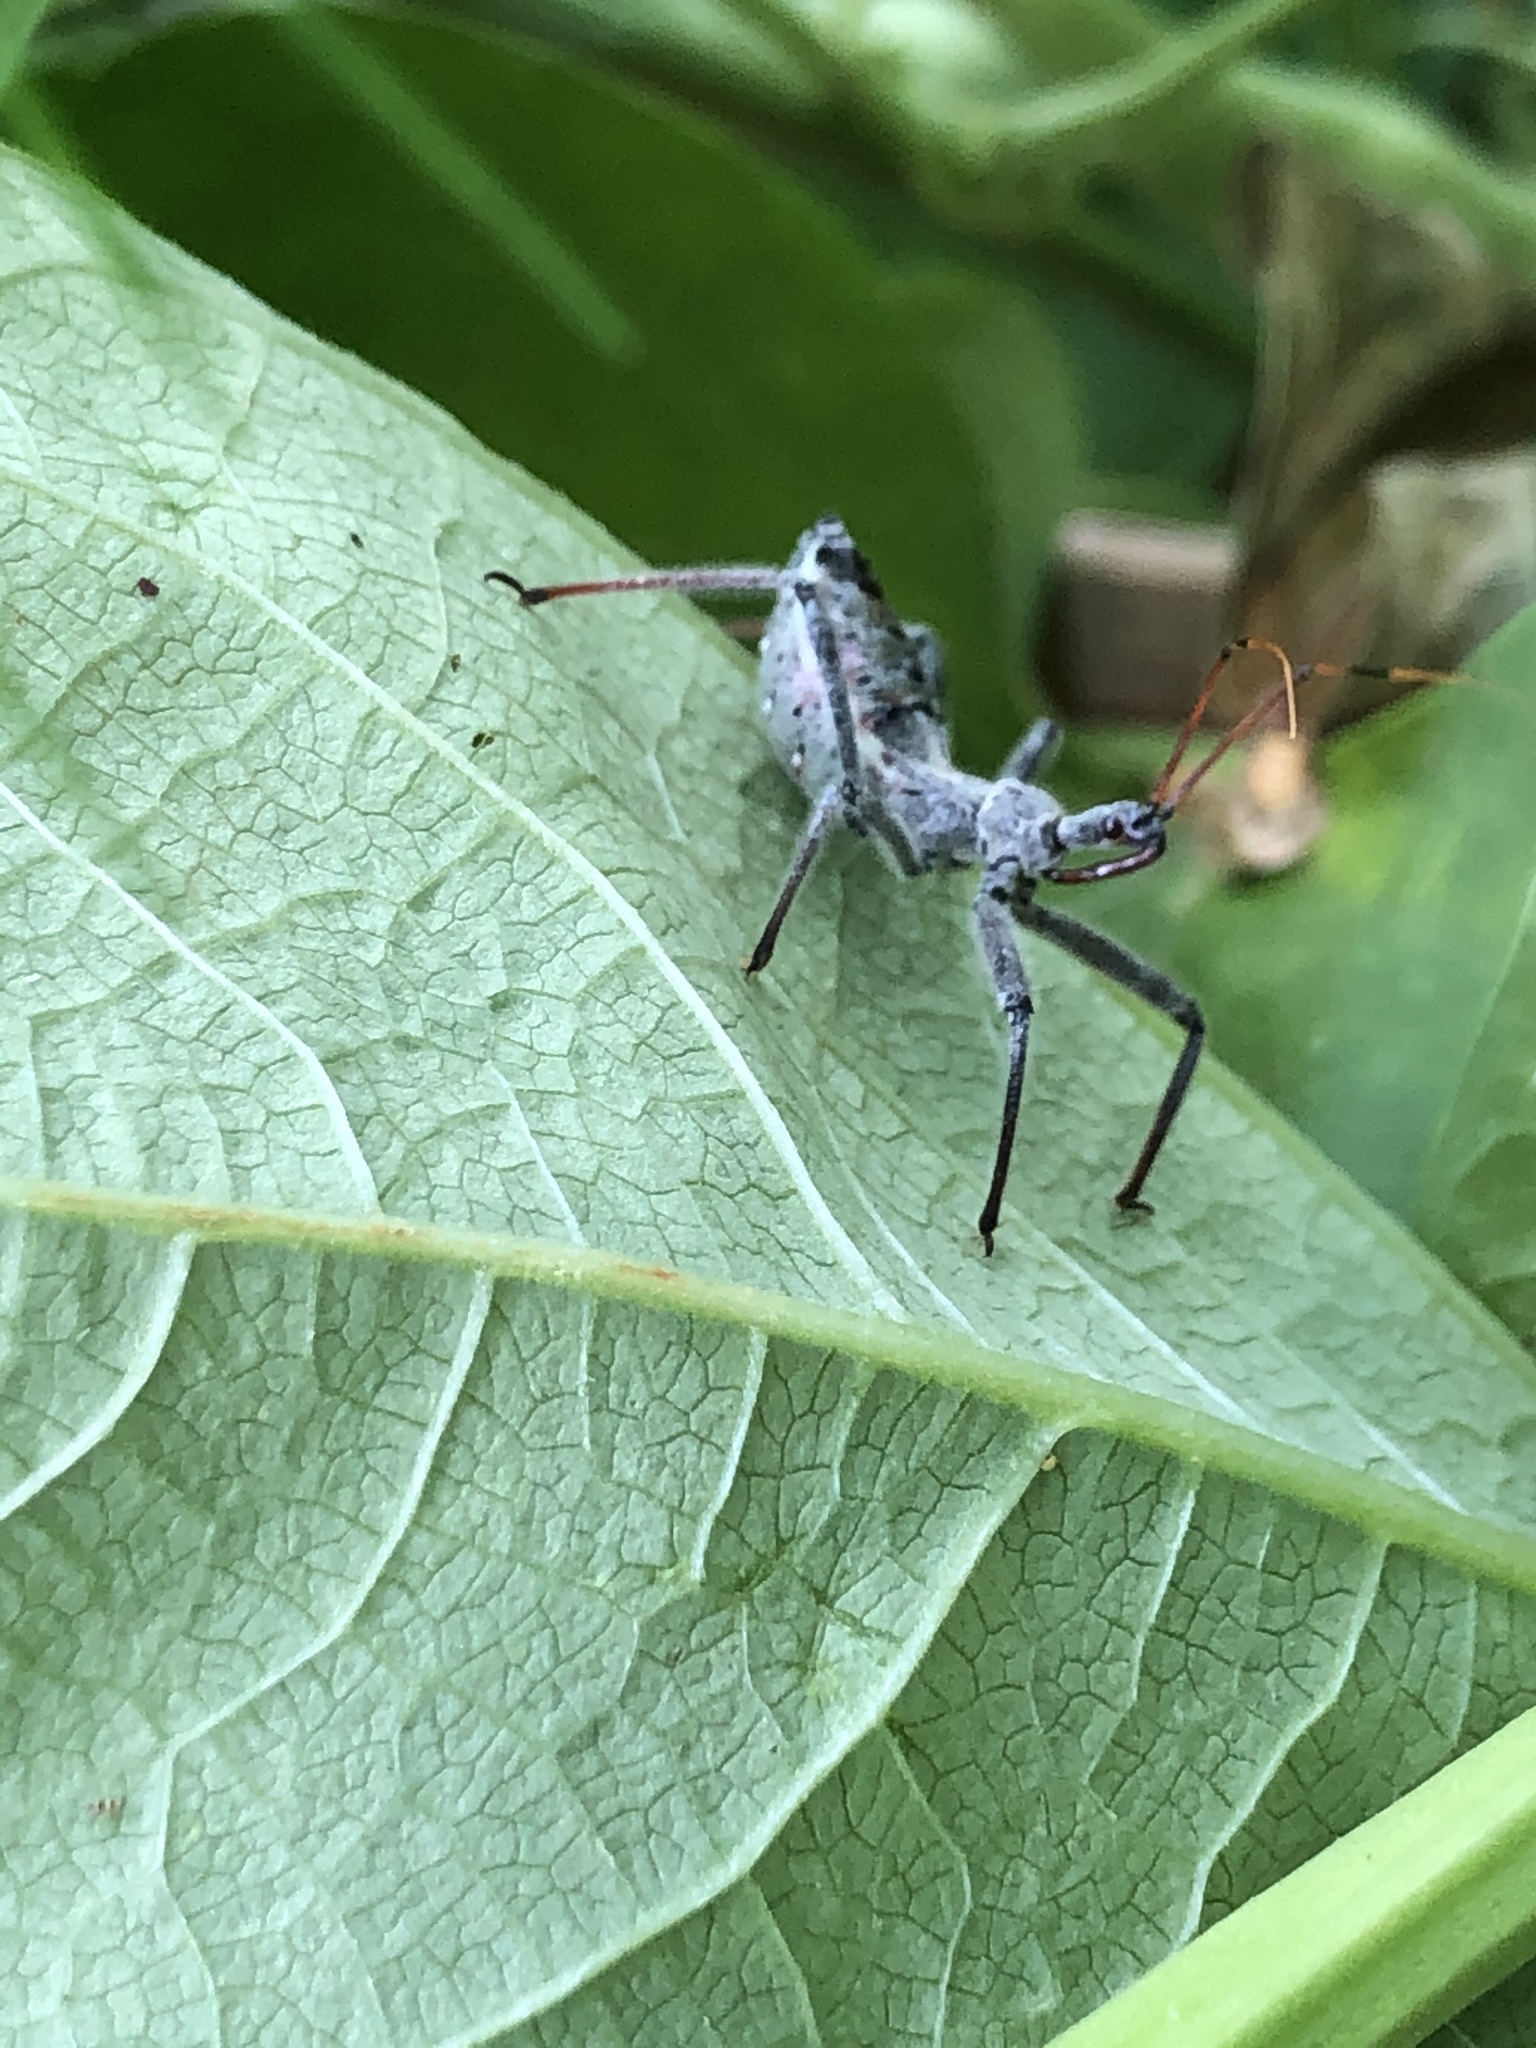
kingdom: Animalia
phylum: Arthropoda
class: Insecta
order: Hemiptera
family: Reduviidae
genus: Arilus
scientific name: Arilus cristatus
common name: North american wheel bug
